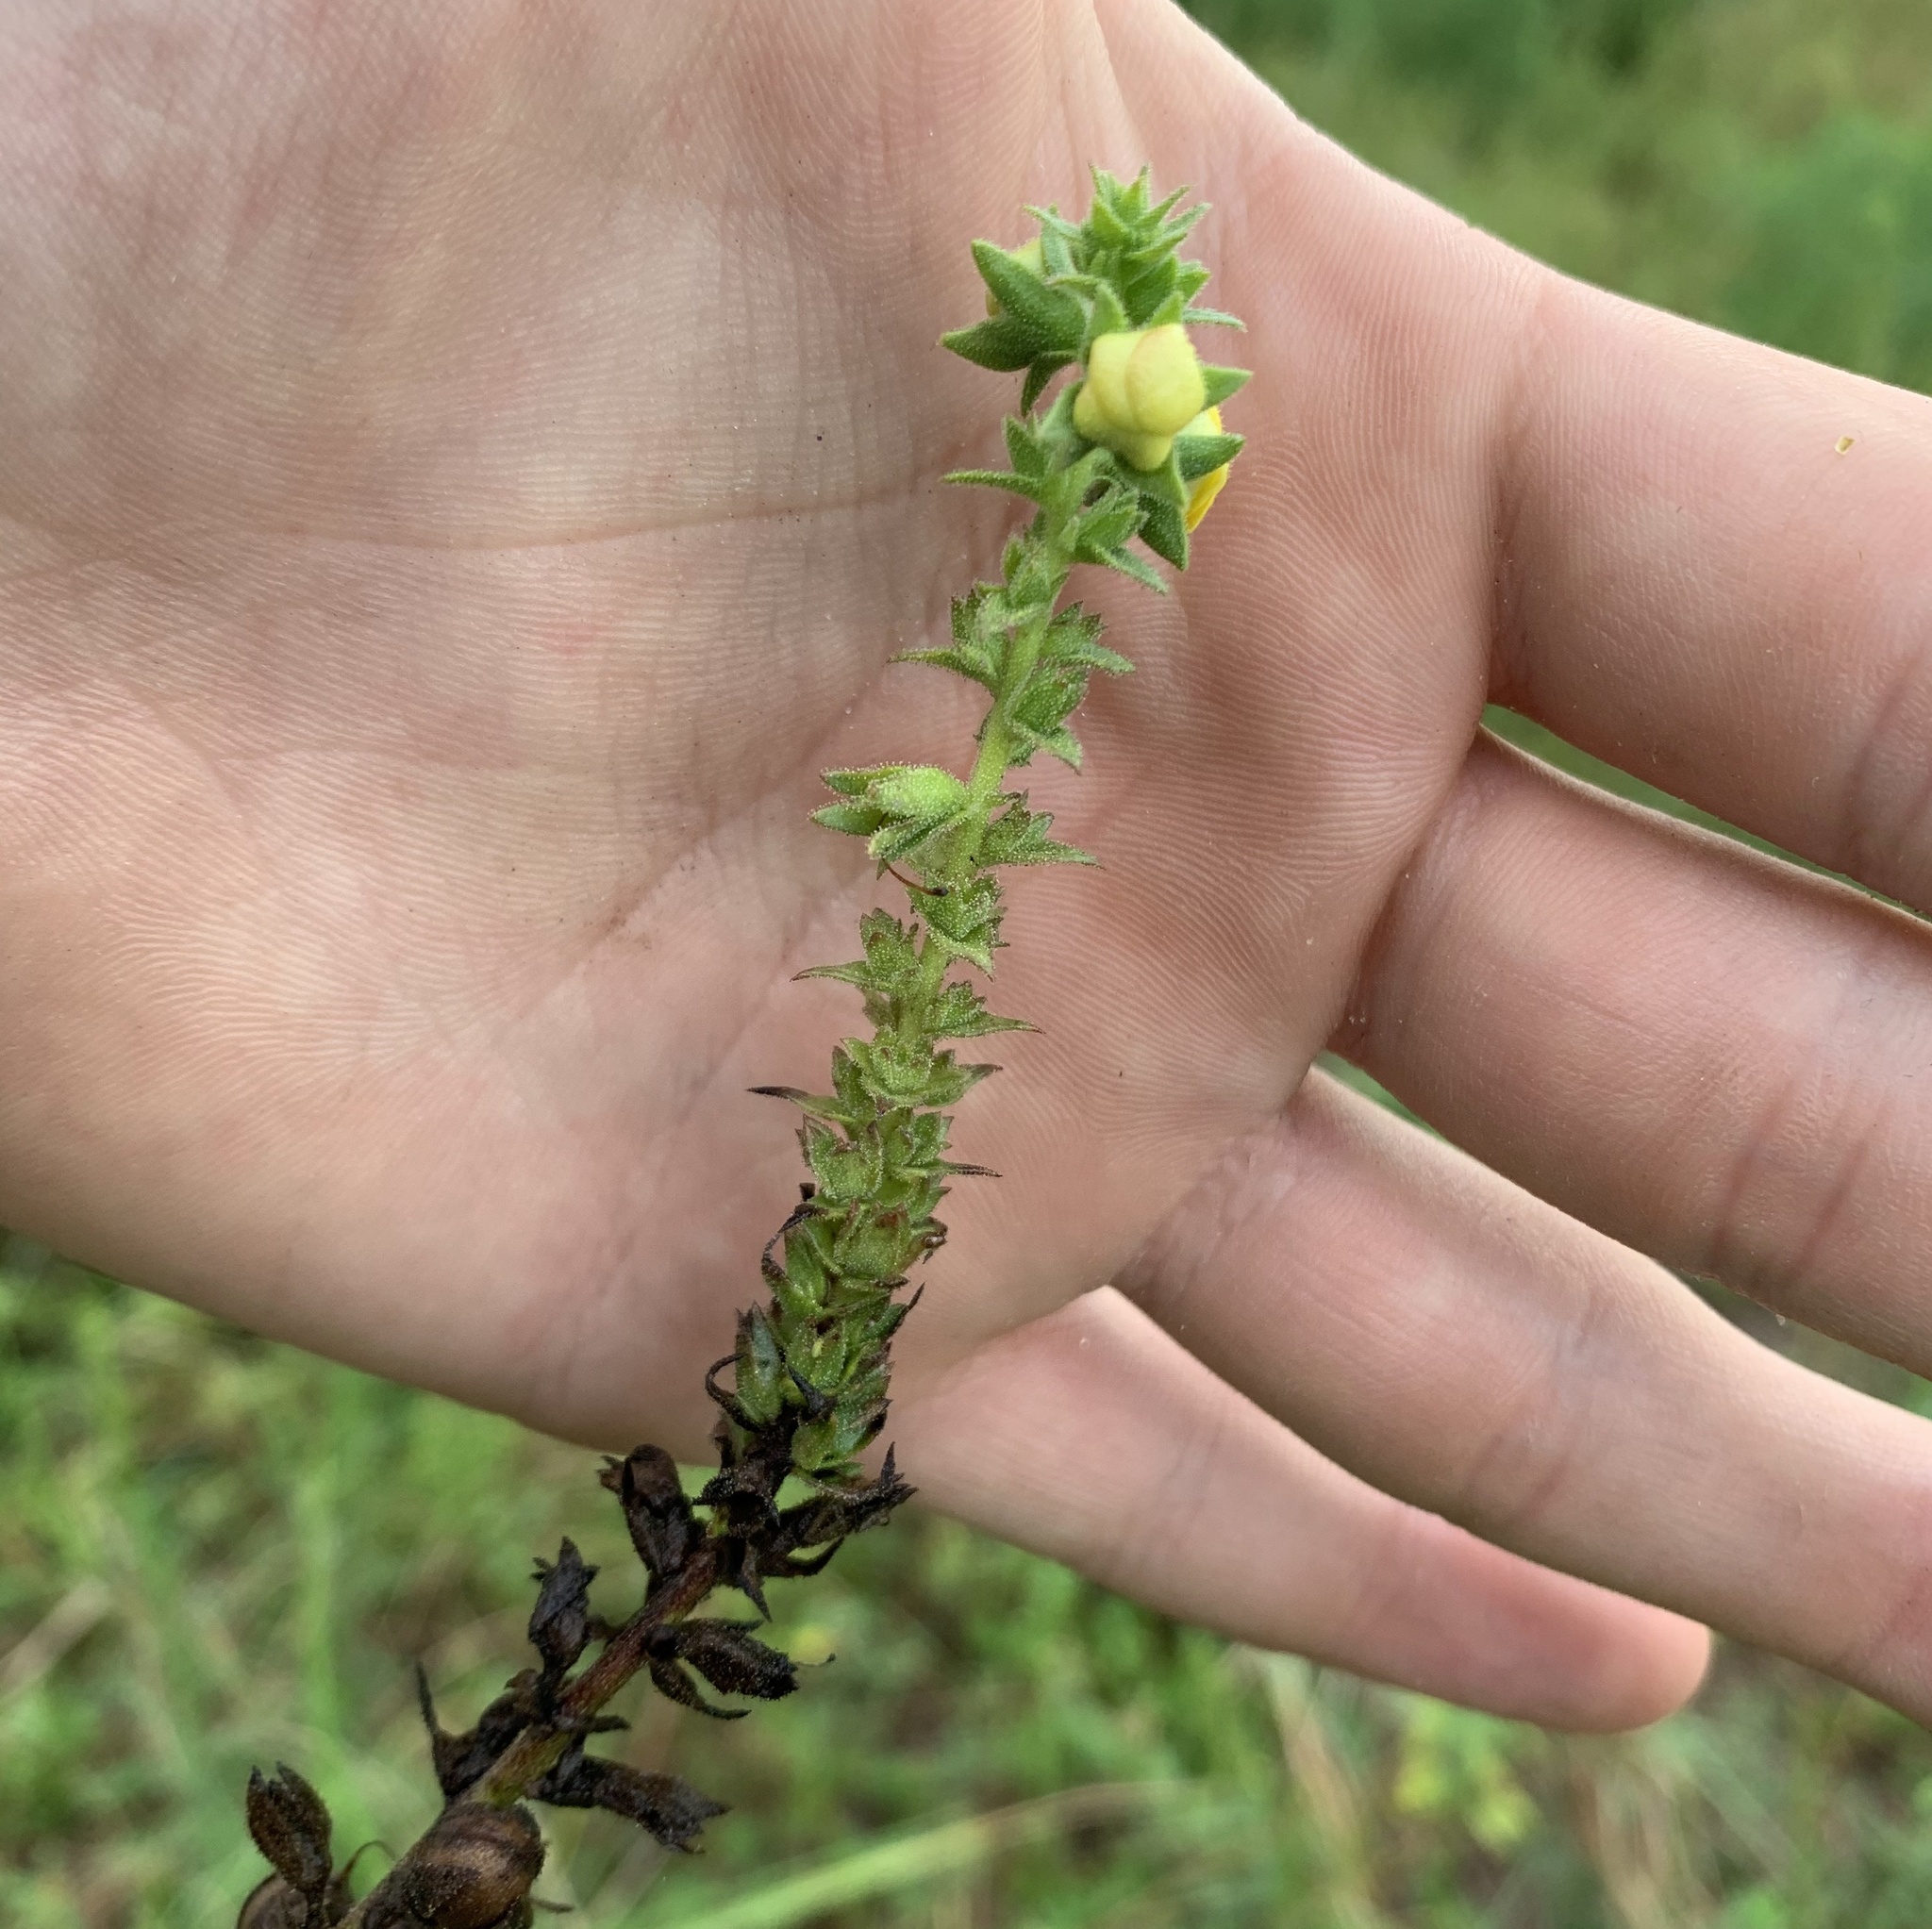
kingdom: Plantae
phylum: Tracheophyta
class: Magnoliopsida
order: Lamiales
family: Scrophulariaceae
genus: Verbascum
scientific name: Verbascum virgatum
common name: Twiggy mullein
